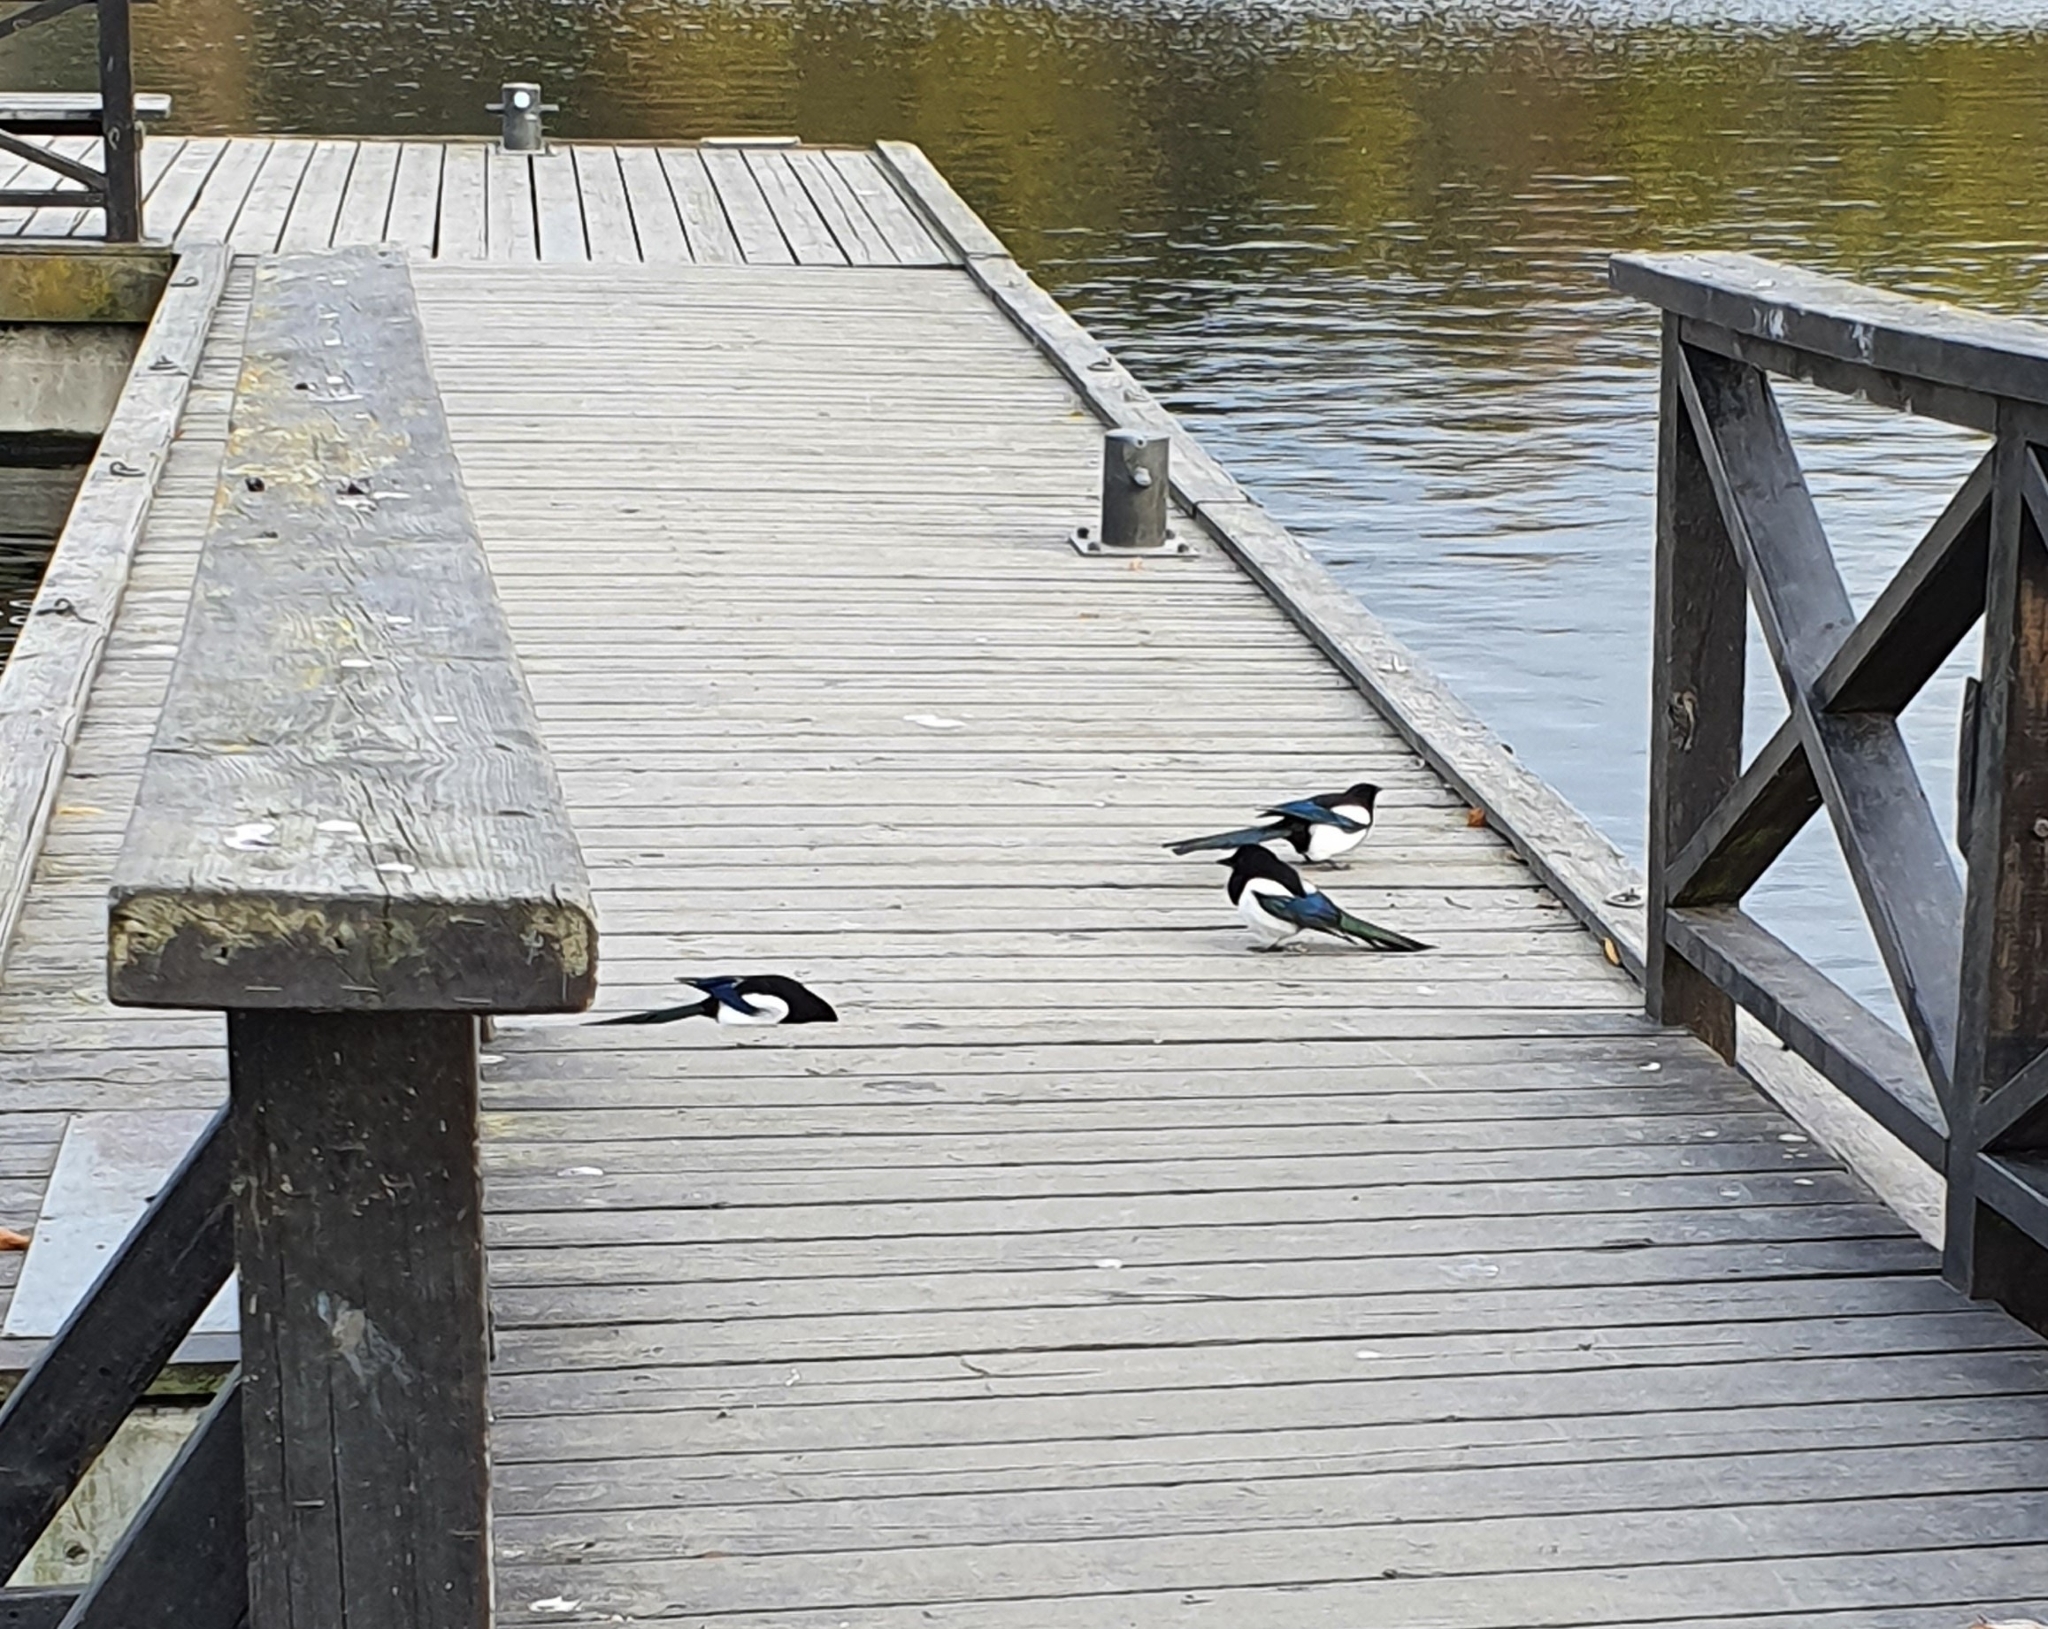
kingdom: Animalia
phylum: Chordata
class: Aves
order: Passeriformes
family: Corvidae
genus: Pica
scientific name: Pica pica
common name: Eurasian magpie
